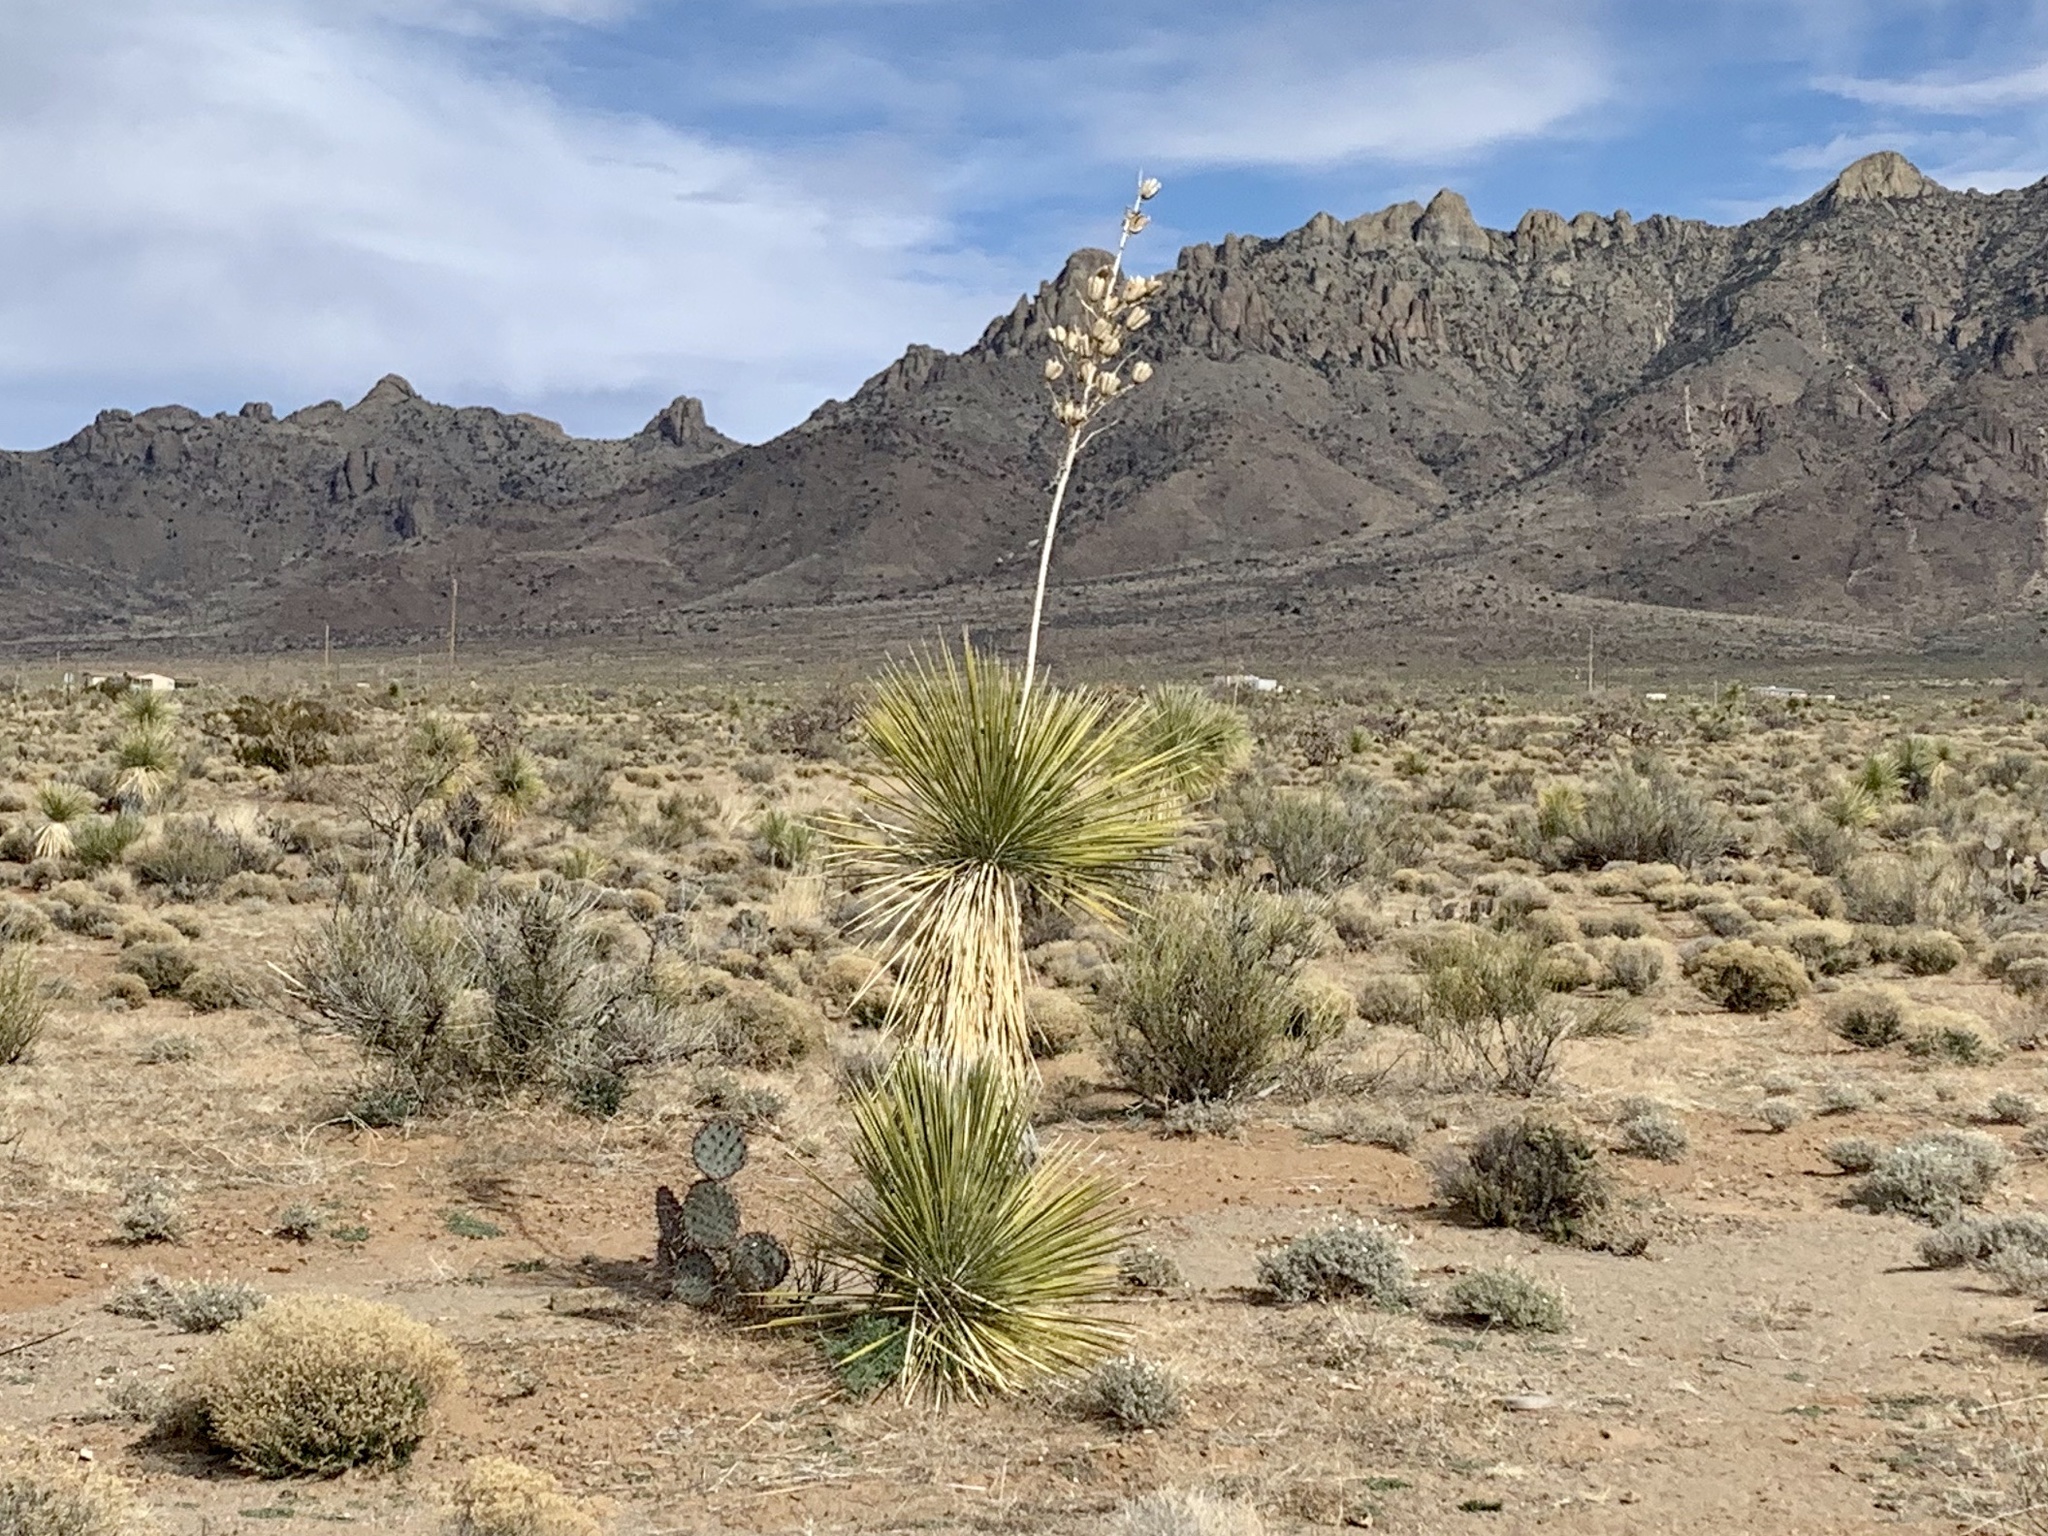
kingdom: Plantae
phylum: Tracheophyta
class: Liliopsida
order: Asparagales
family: Asparagaceae
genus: Yucca
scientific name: Yucca elata
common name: Palmella
